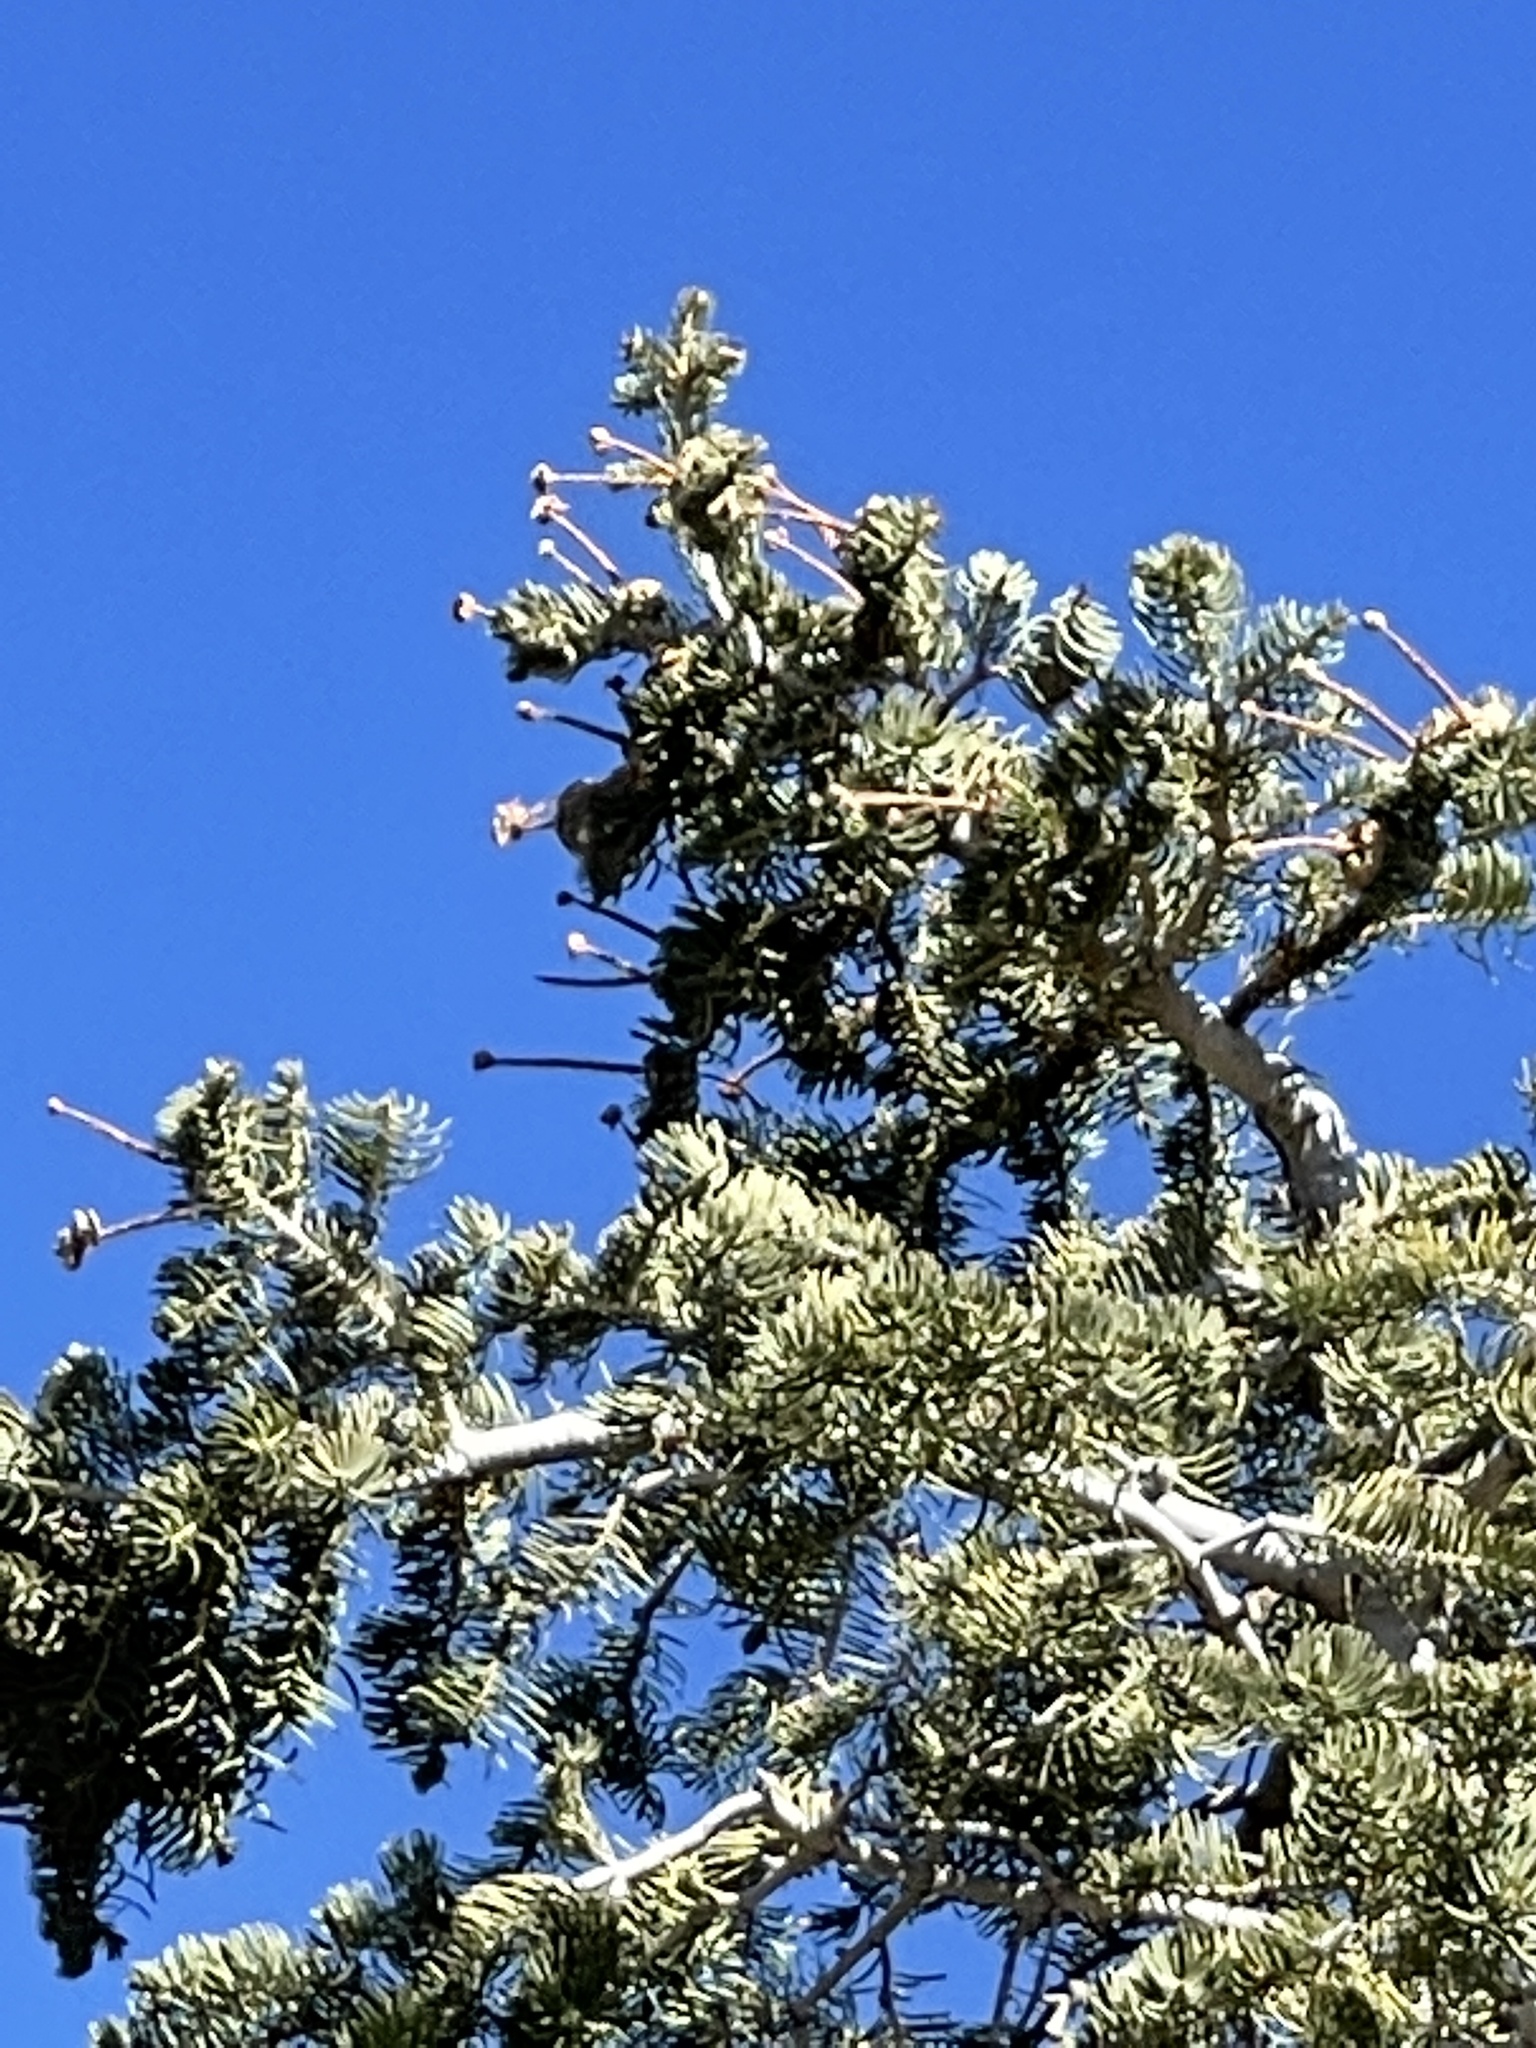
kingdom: Plantae
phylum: Tracheophyta
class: Pinopsida
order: Pinales
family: Pinaceae
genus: Abies
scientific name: Abies concolor
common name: Colorado fir
